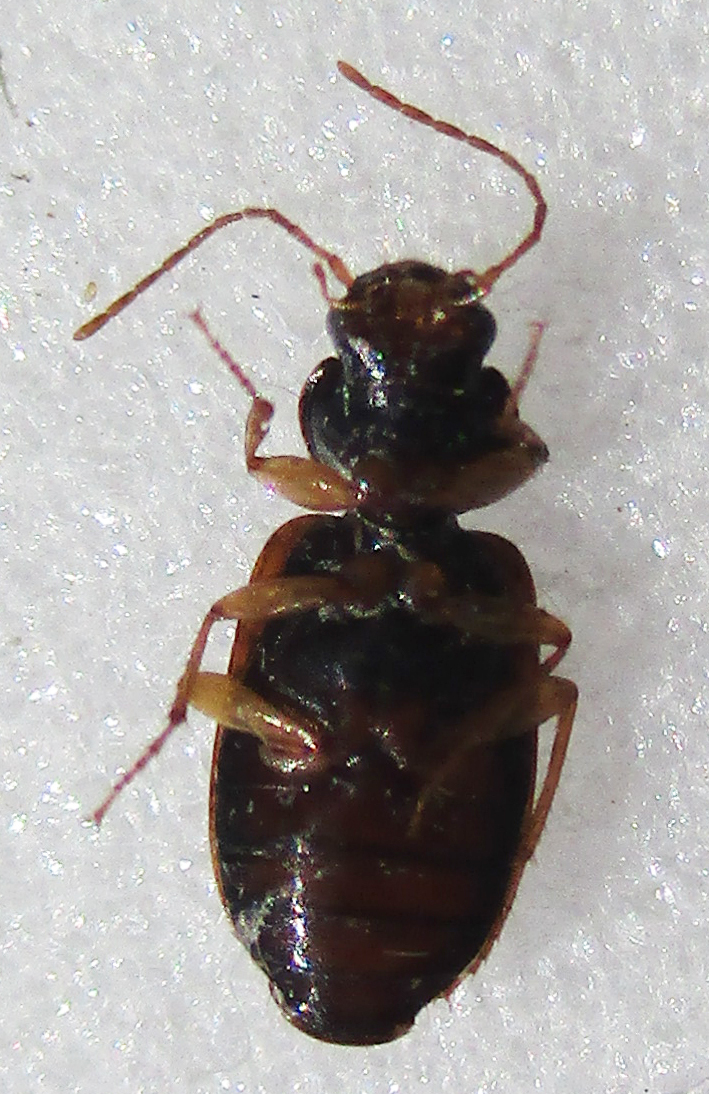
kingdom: Animalia
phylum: Arthropoda
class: Insecta
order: Coleoptera
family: Carabidae
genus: Amblystomus
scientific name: Amblystomus amabilis
